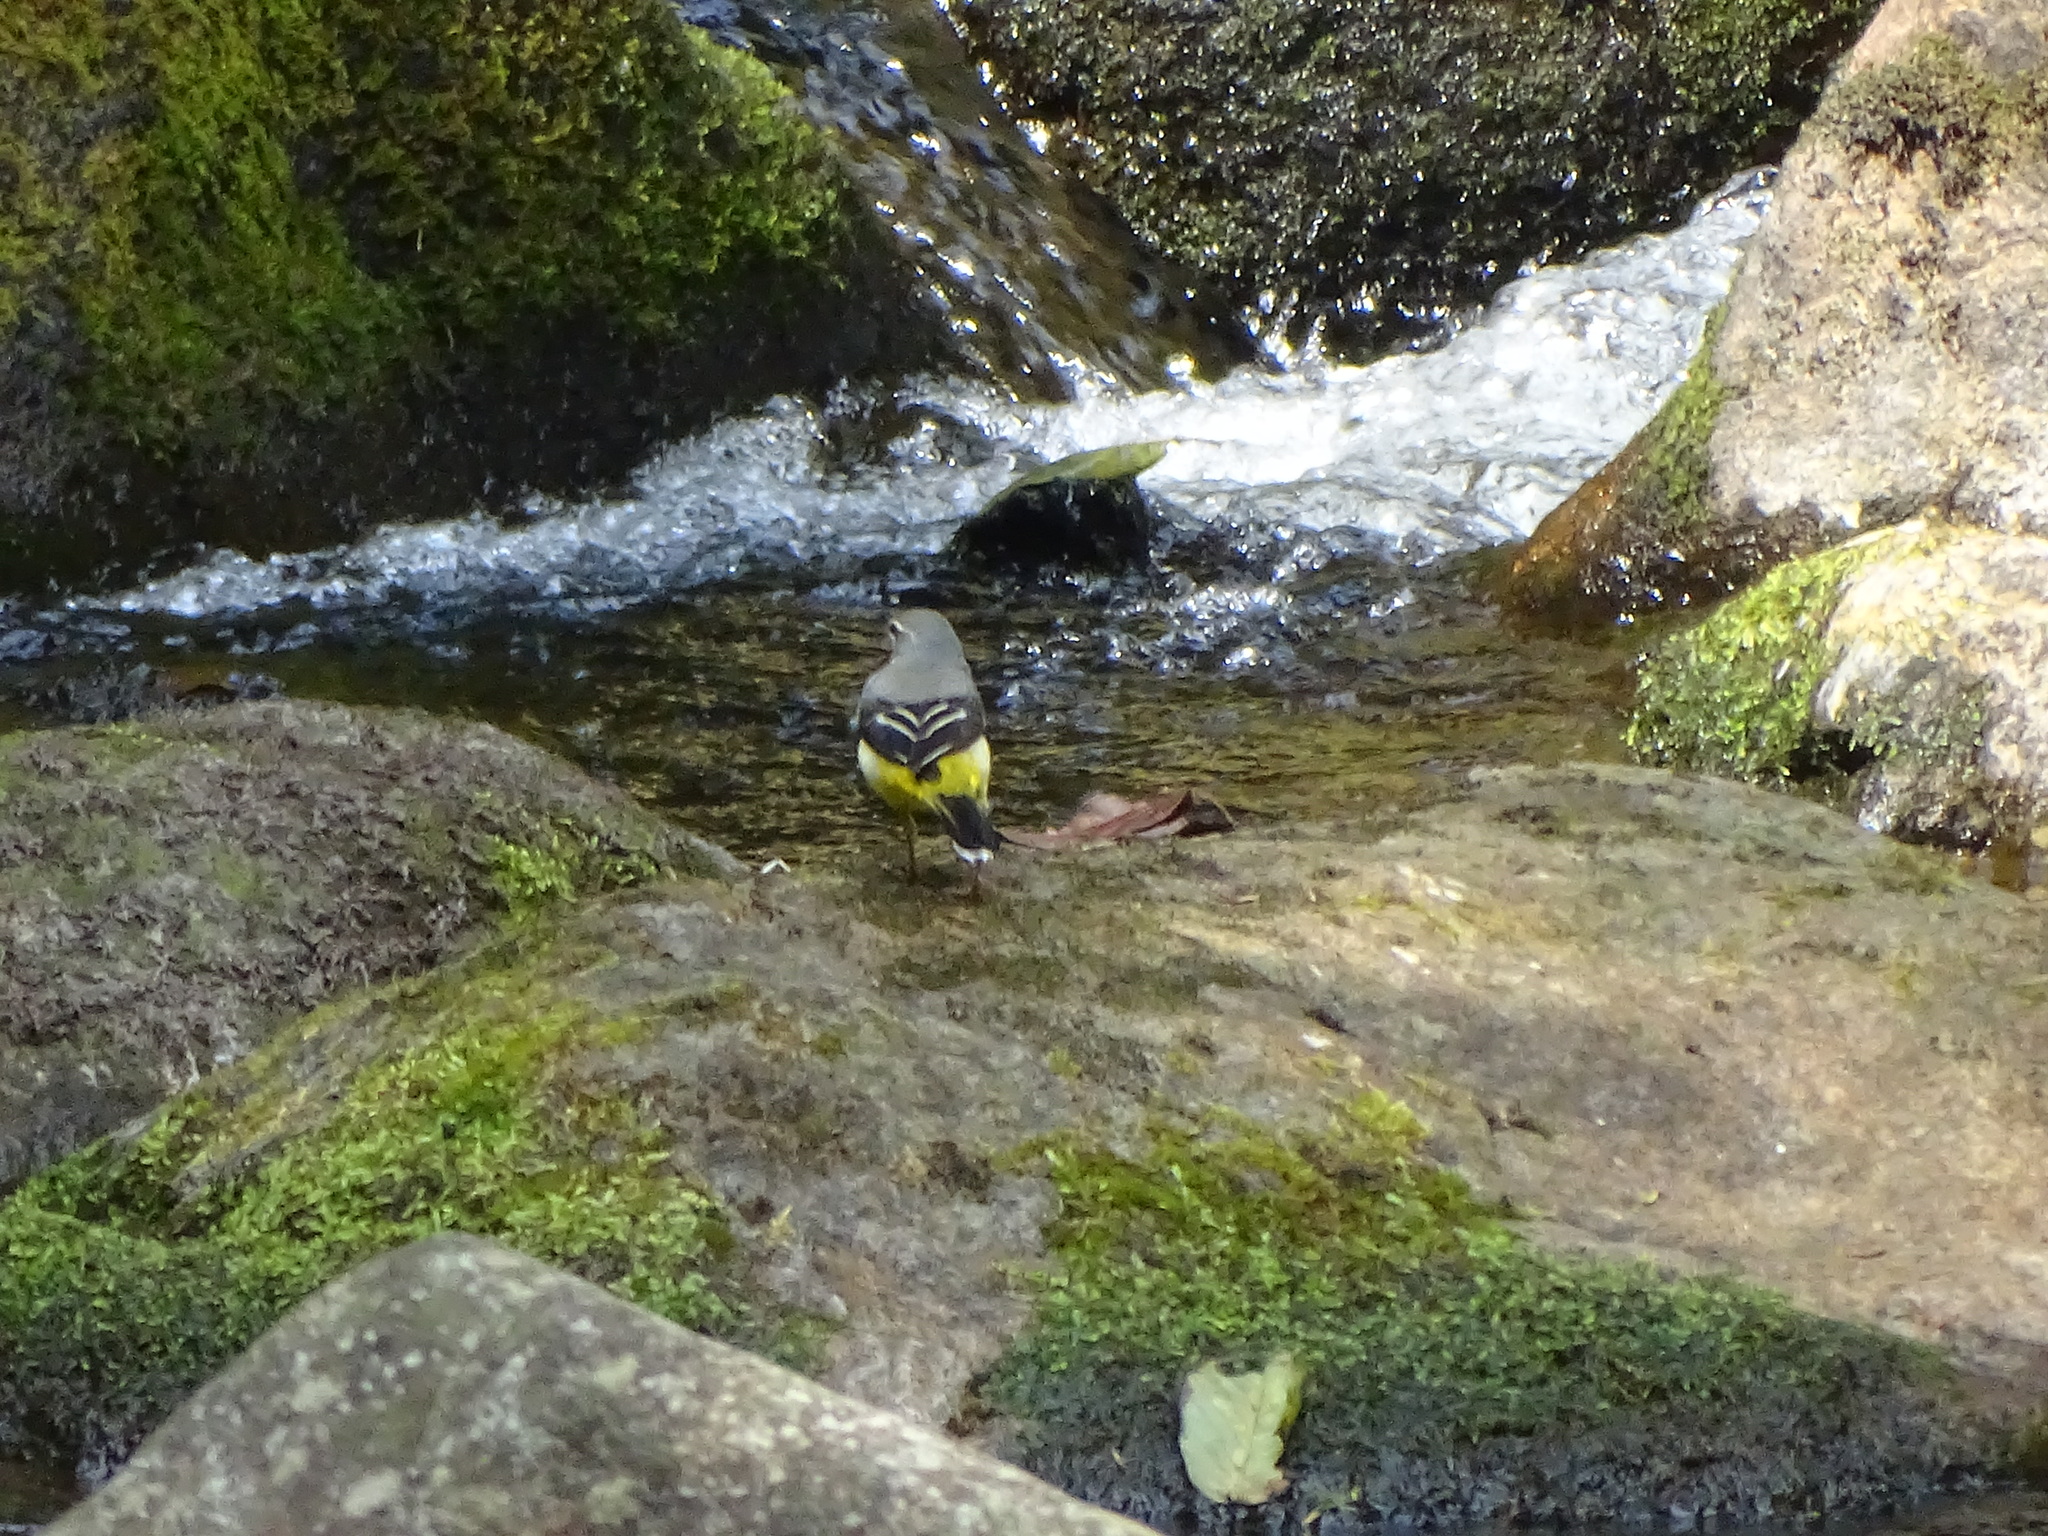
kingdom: Animalia
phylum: Chordata
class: Aves
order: Passeriformes
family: Motacillidae
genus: Motacilla
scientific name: Motacilla cinerea
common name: Grey wagtail
